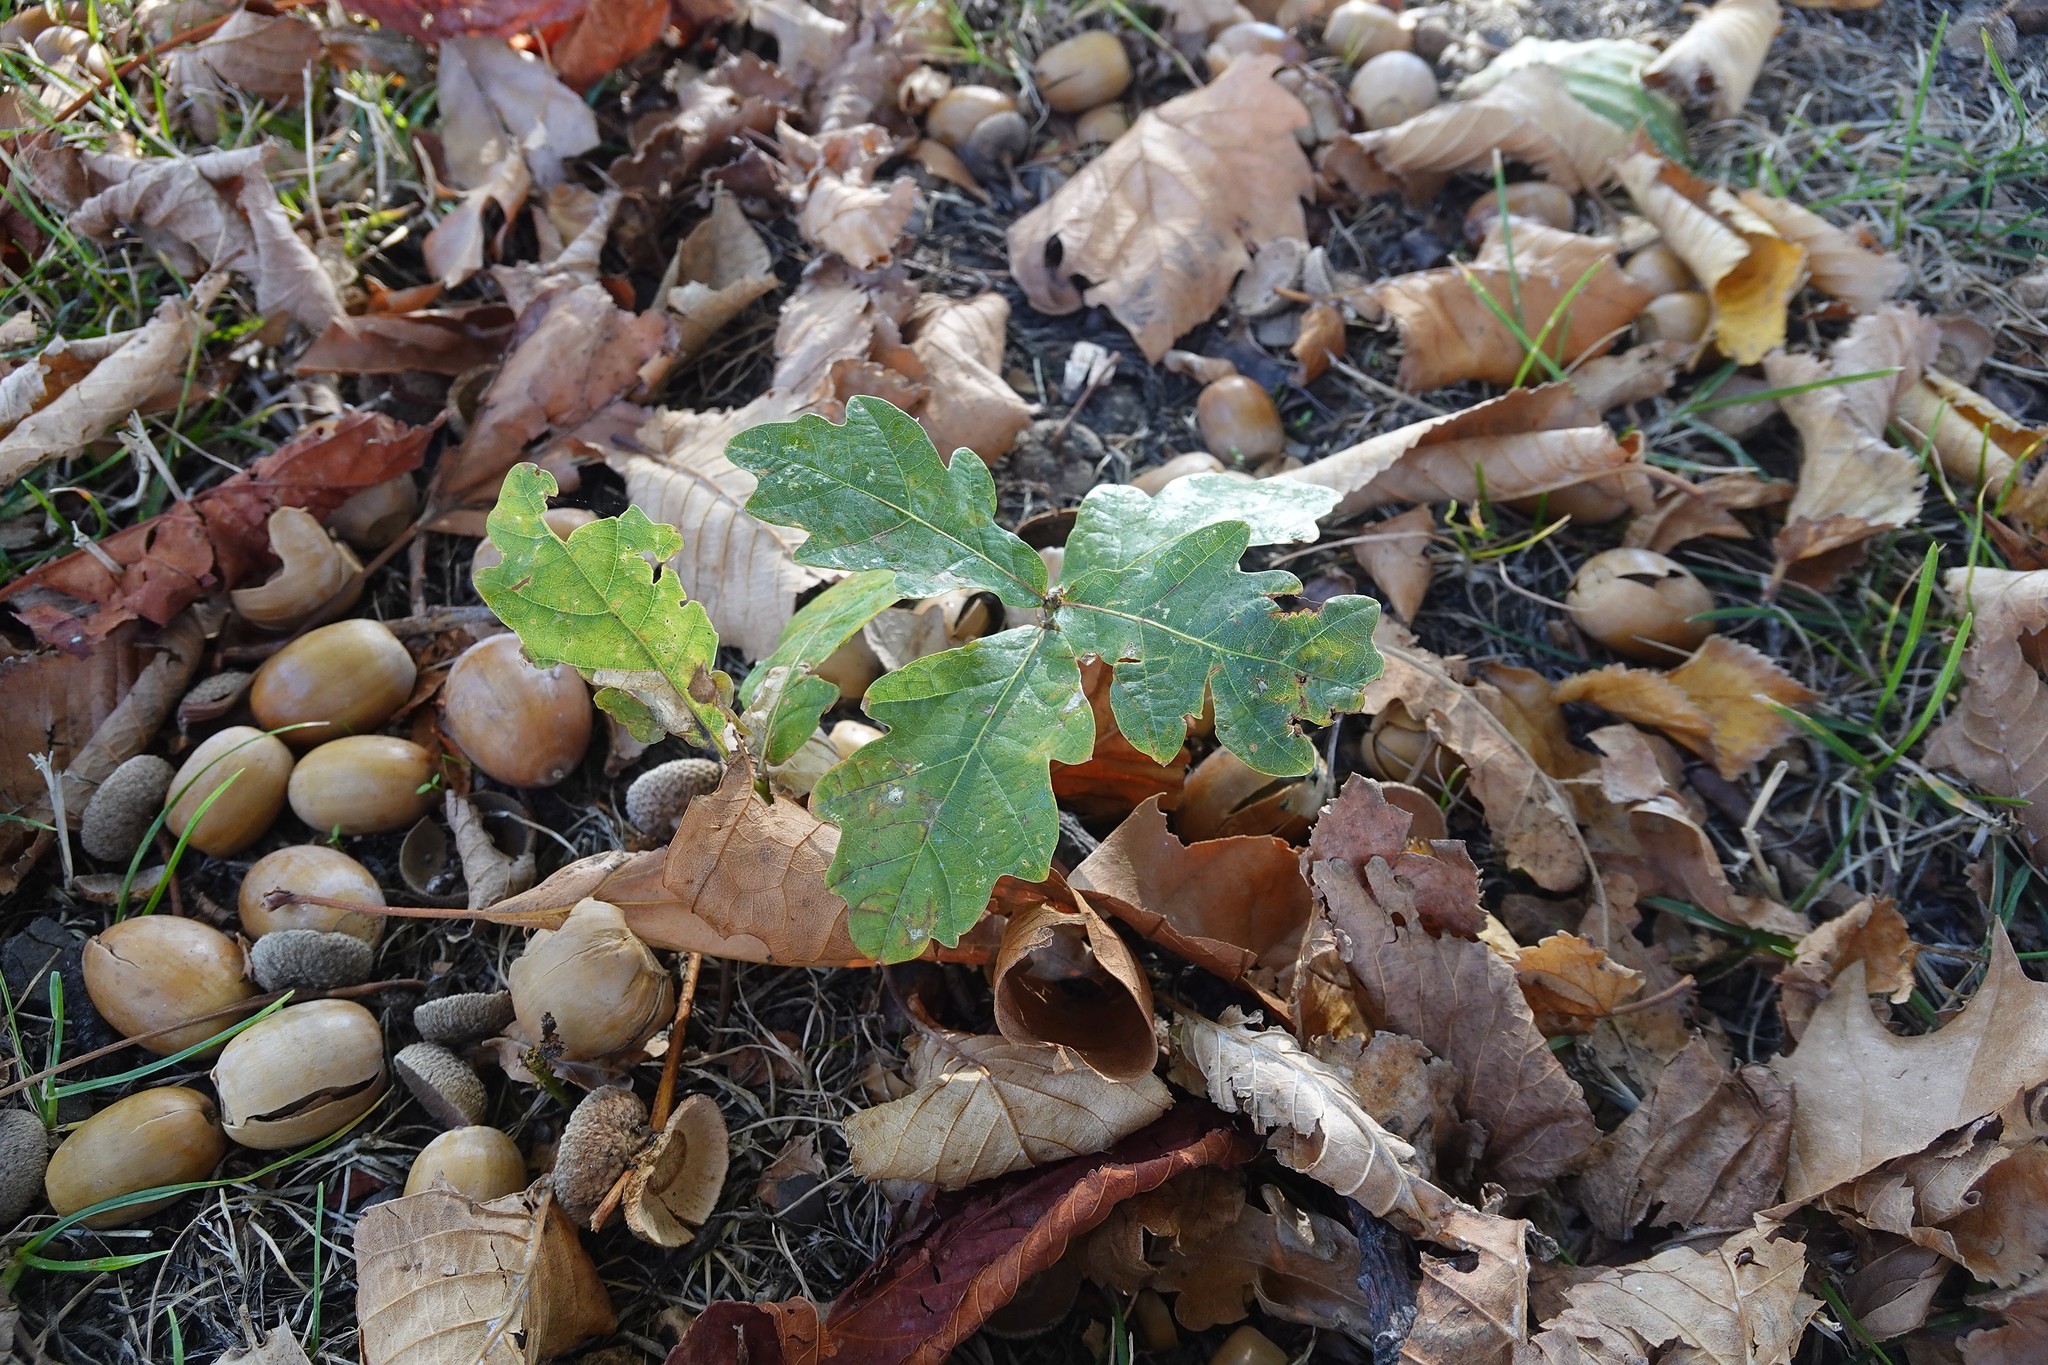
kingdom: Plantae
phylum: Tracheophyta
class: Magnoliopsida
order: Fagales
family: Fagaceae
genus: Quercus
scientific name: Quercus robur
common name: Pedunculate oak
